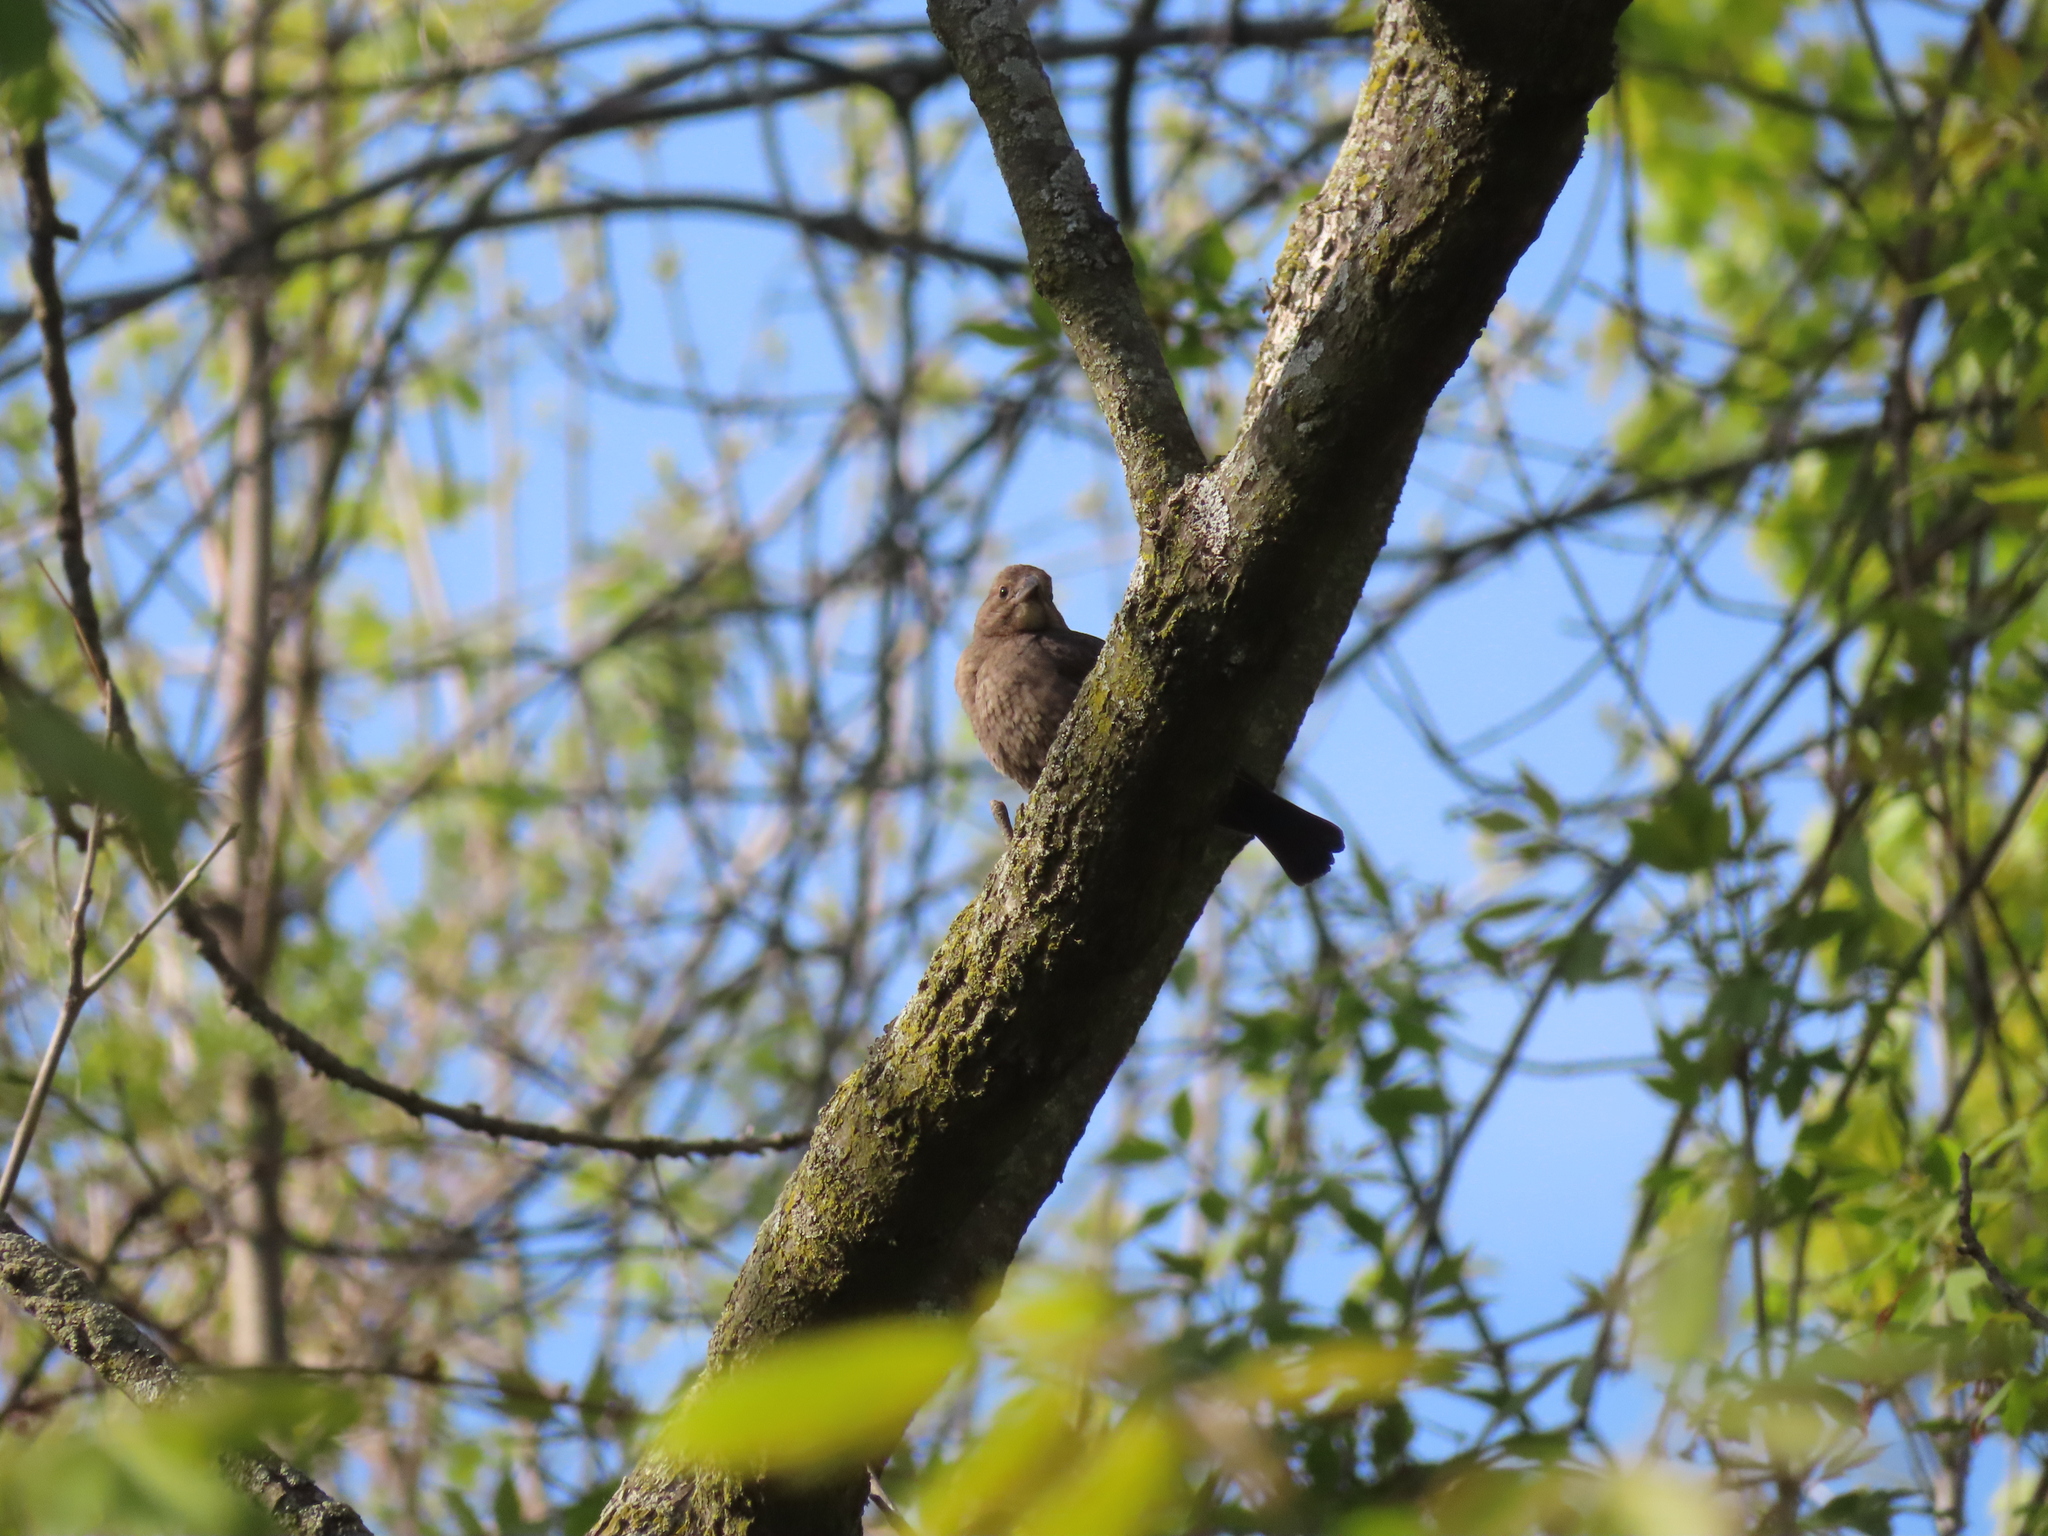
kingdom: Animalia
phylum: Chordata
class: Aves
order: Passeriformes
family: Icteridae
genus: Molothrus
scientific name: Molothrus ater
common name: Brown-headed cowbird
